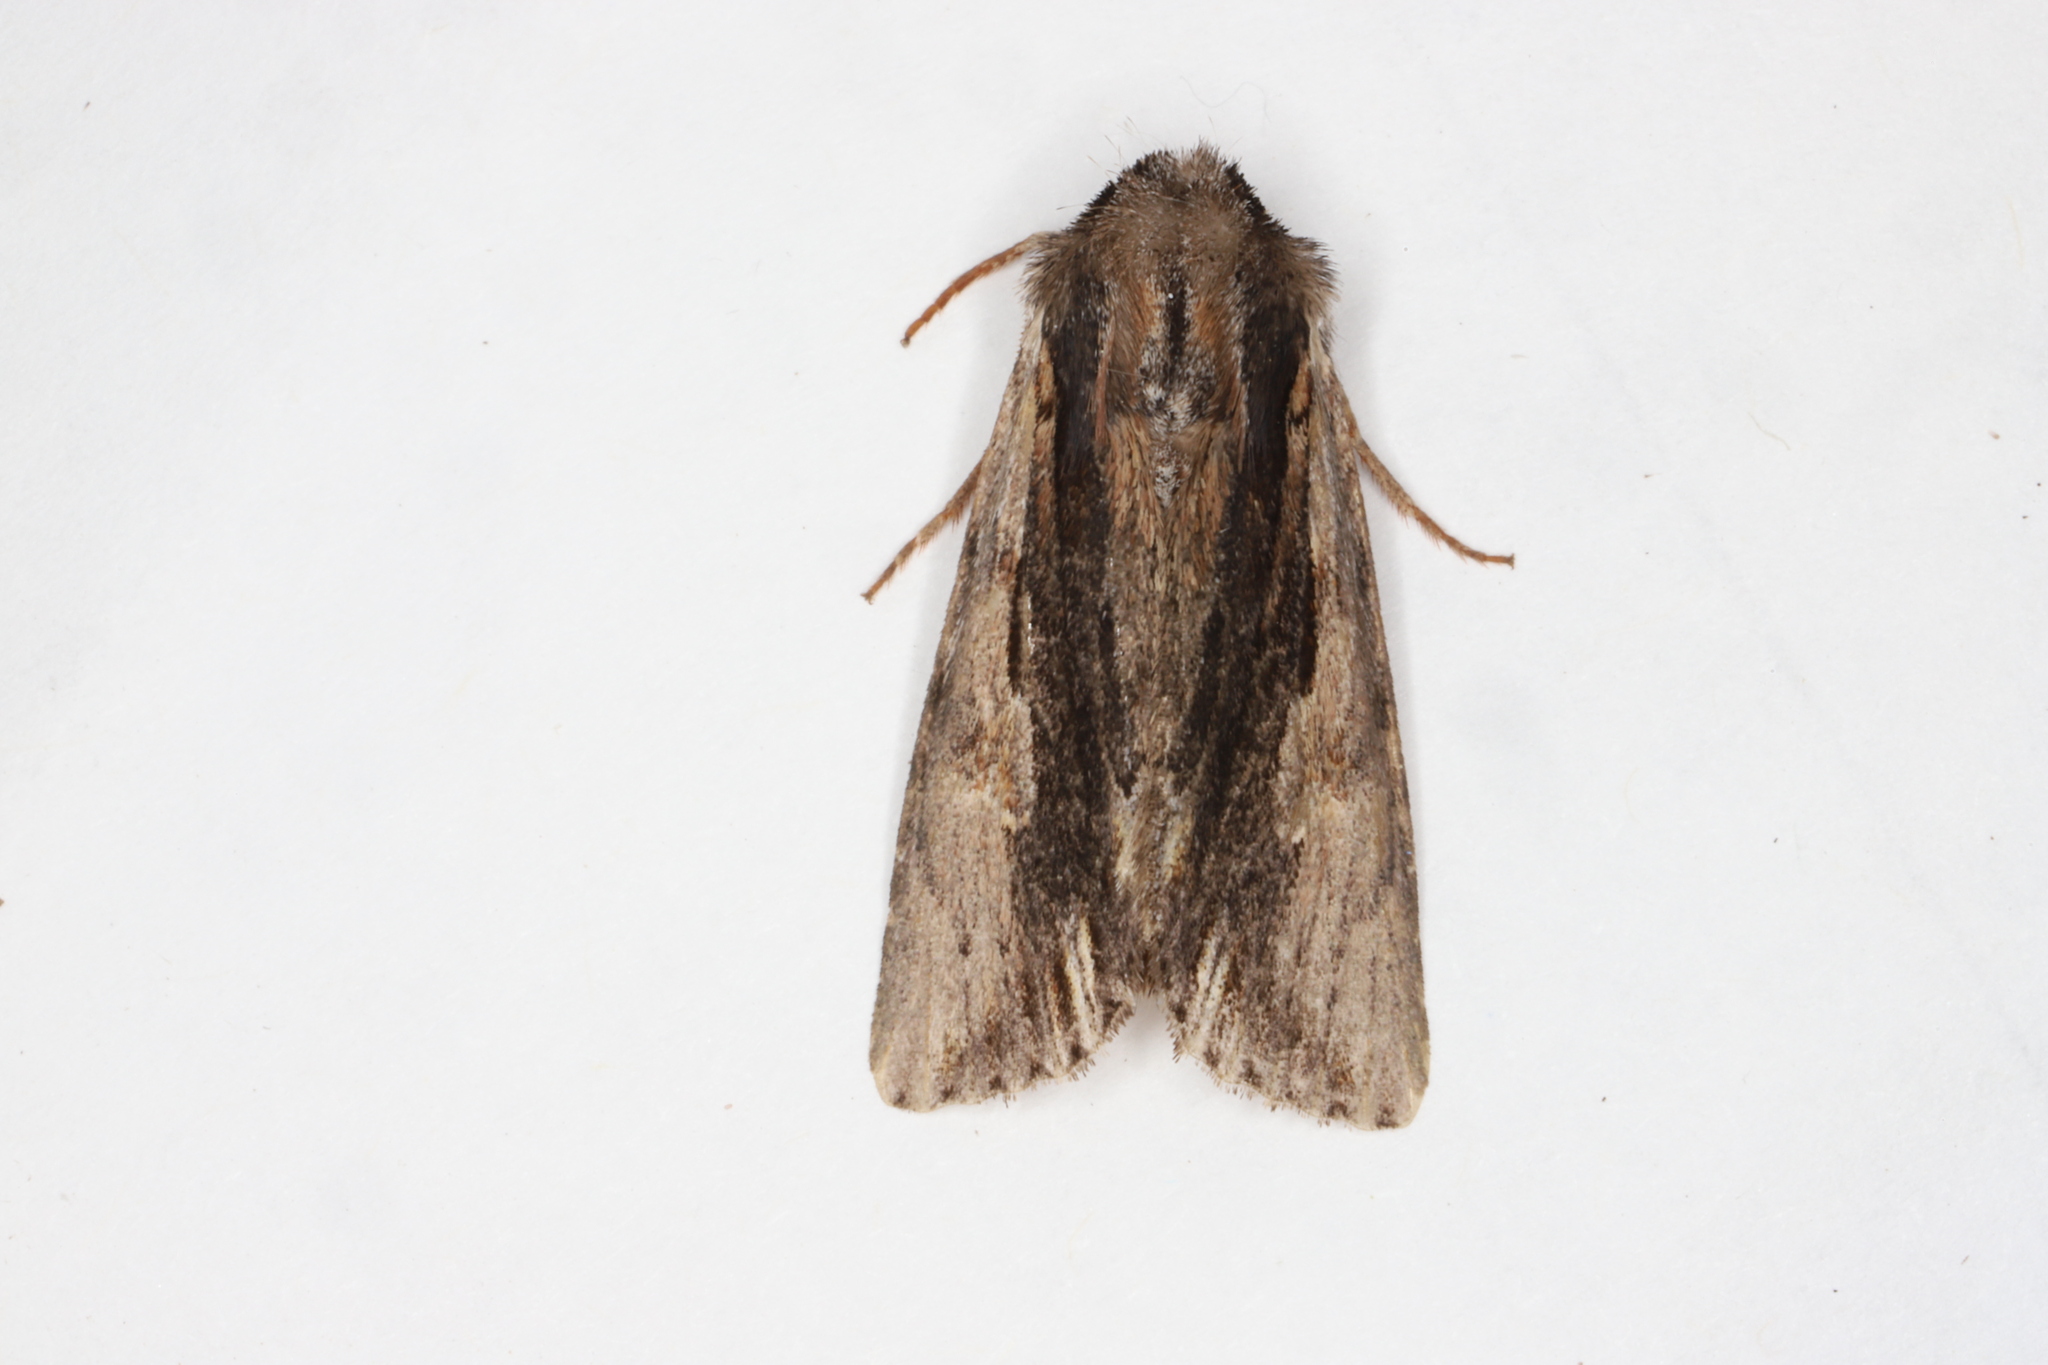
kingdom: Animalia
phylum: Arthropoda
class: Insecta
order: Lepidoptera
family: Noctuidae
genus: Achatia
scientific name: Achatia evicta
